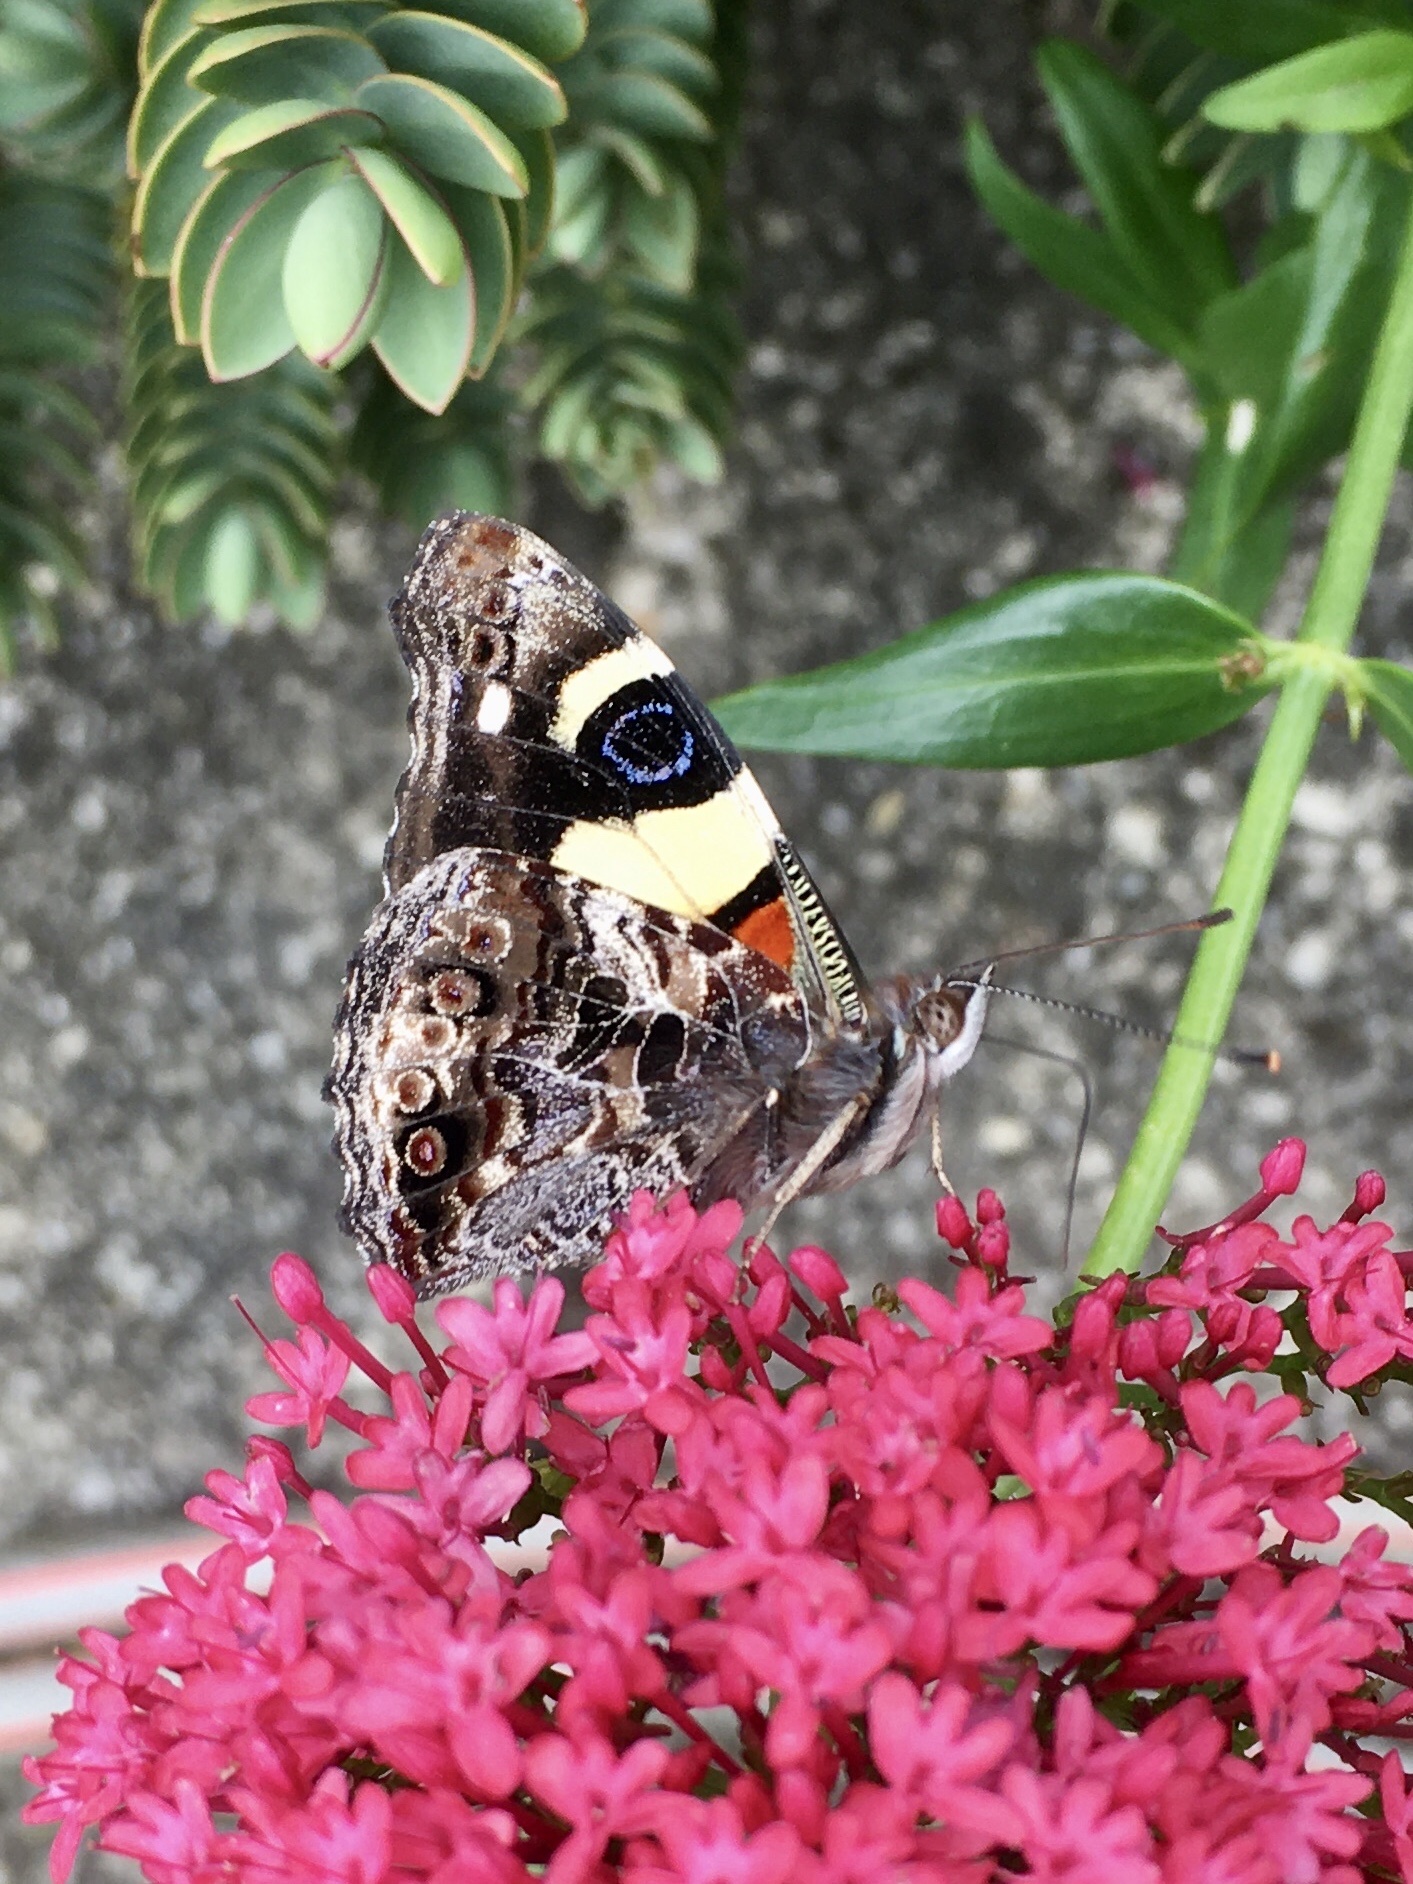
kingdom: Animalia
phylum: Arthropoda
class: Insecta
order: Lepidoptera
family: Nymphalidae
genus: Vanessa
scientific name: Vanessa itea
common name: Yellow admiral
